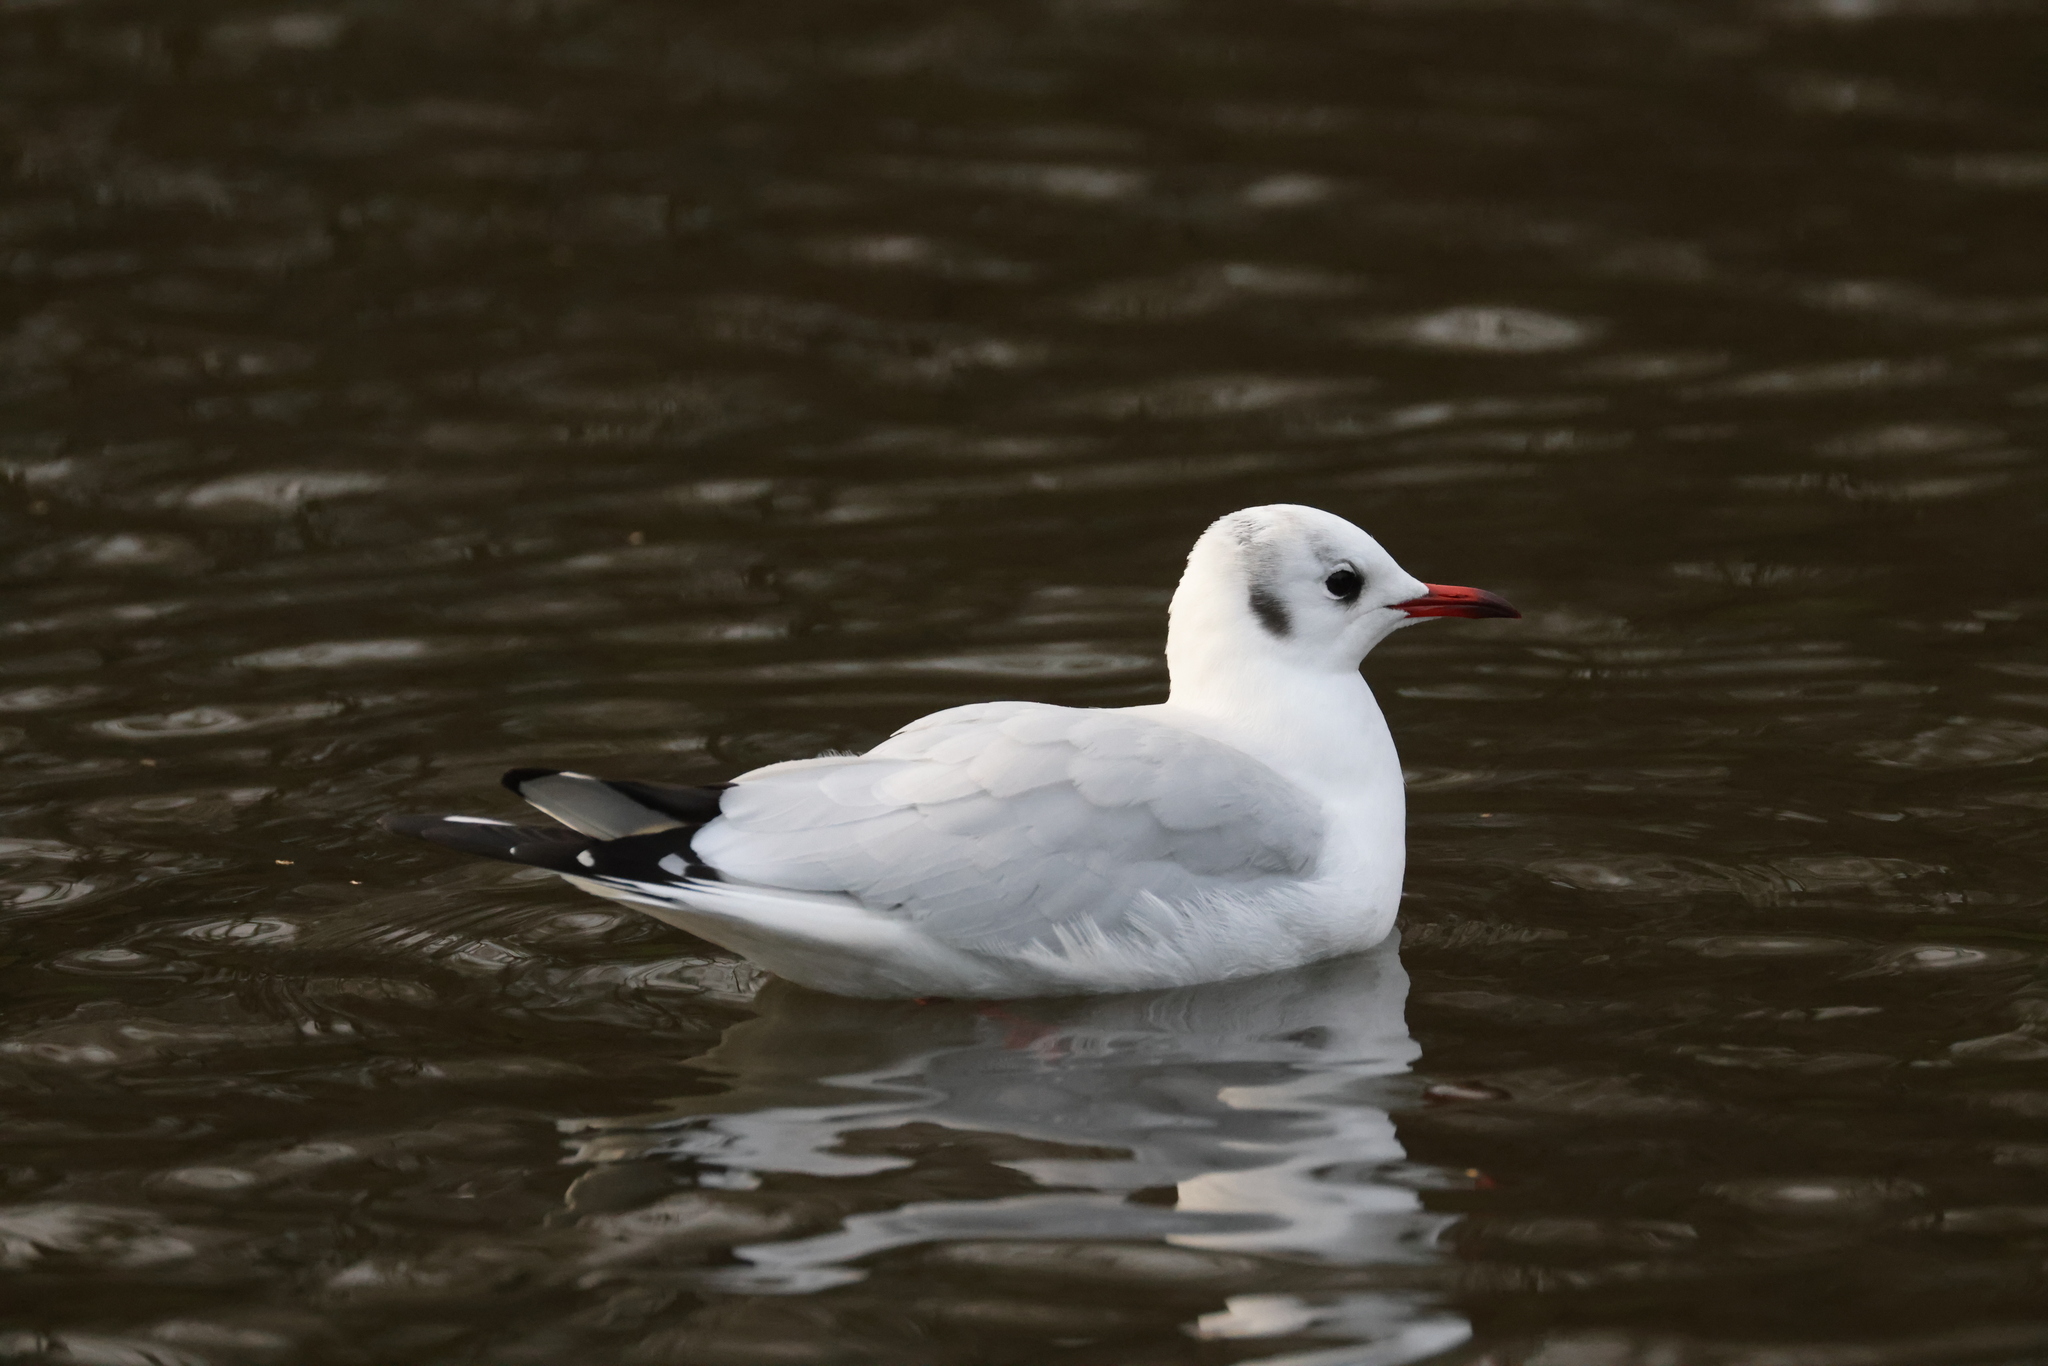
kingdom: Animalia
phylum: Chordata
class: Aves
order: Charadriiformes
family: Laridae
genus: Chroicocephalus
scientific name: Chroicocephalus ridibundus
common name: Black-headed gull
